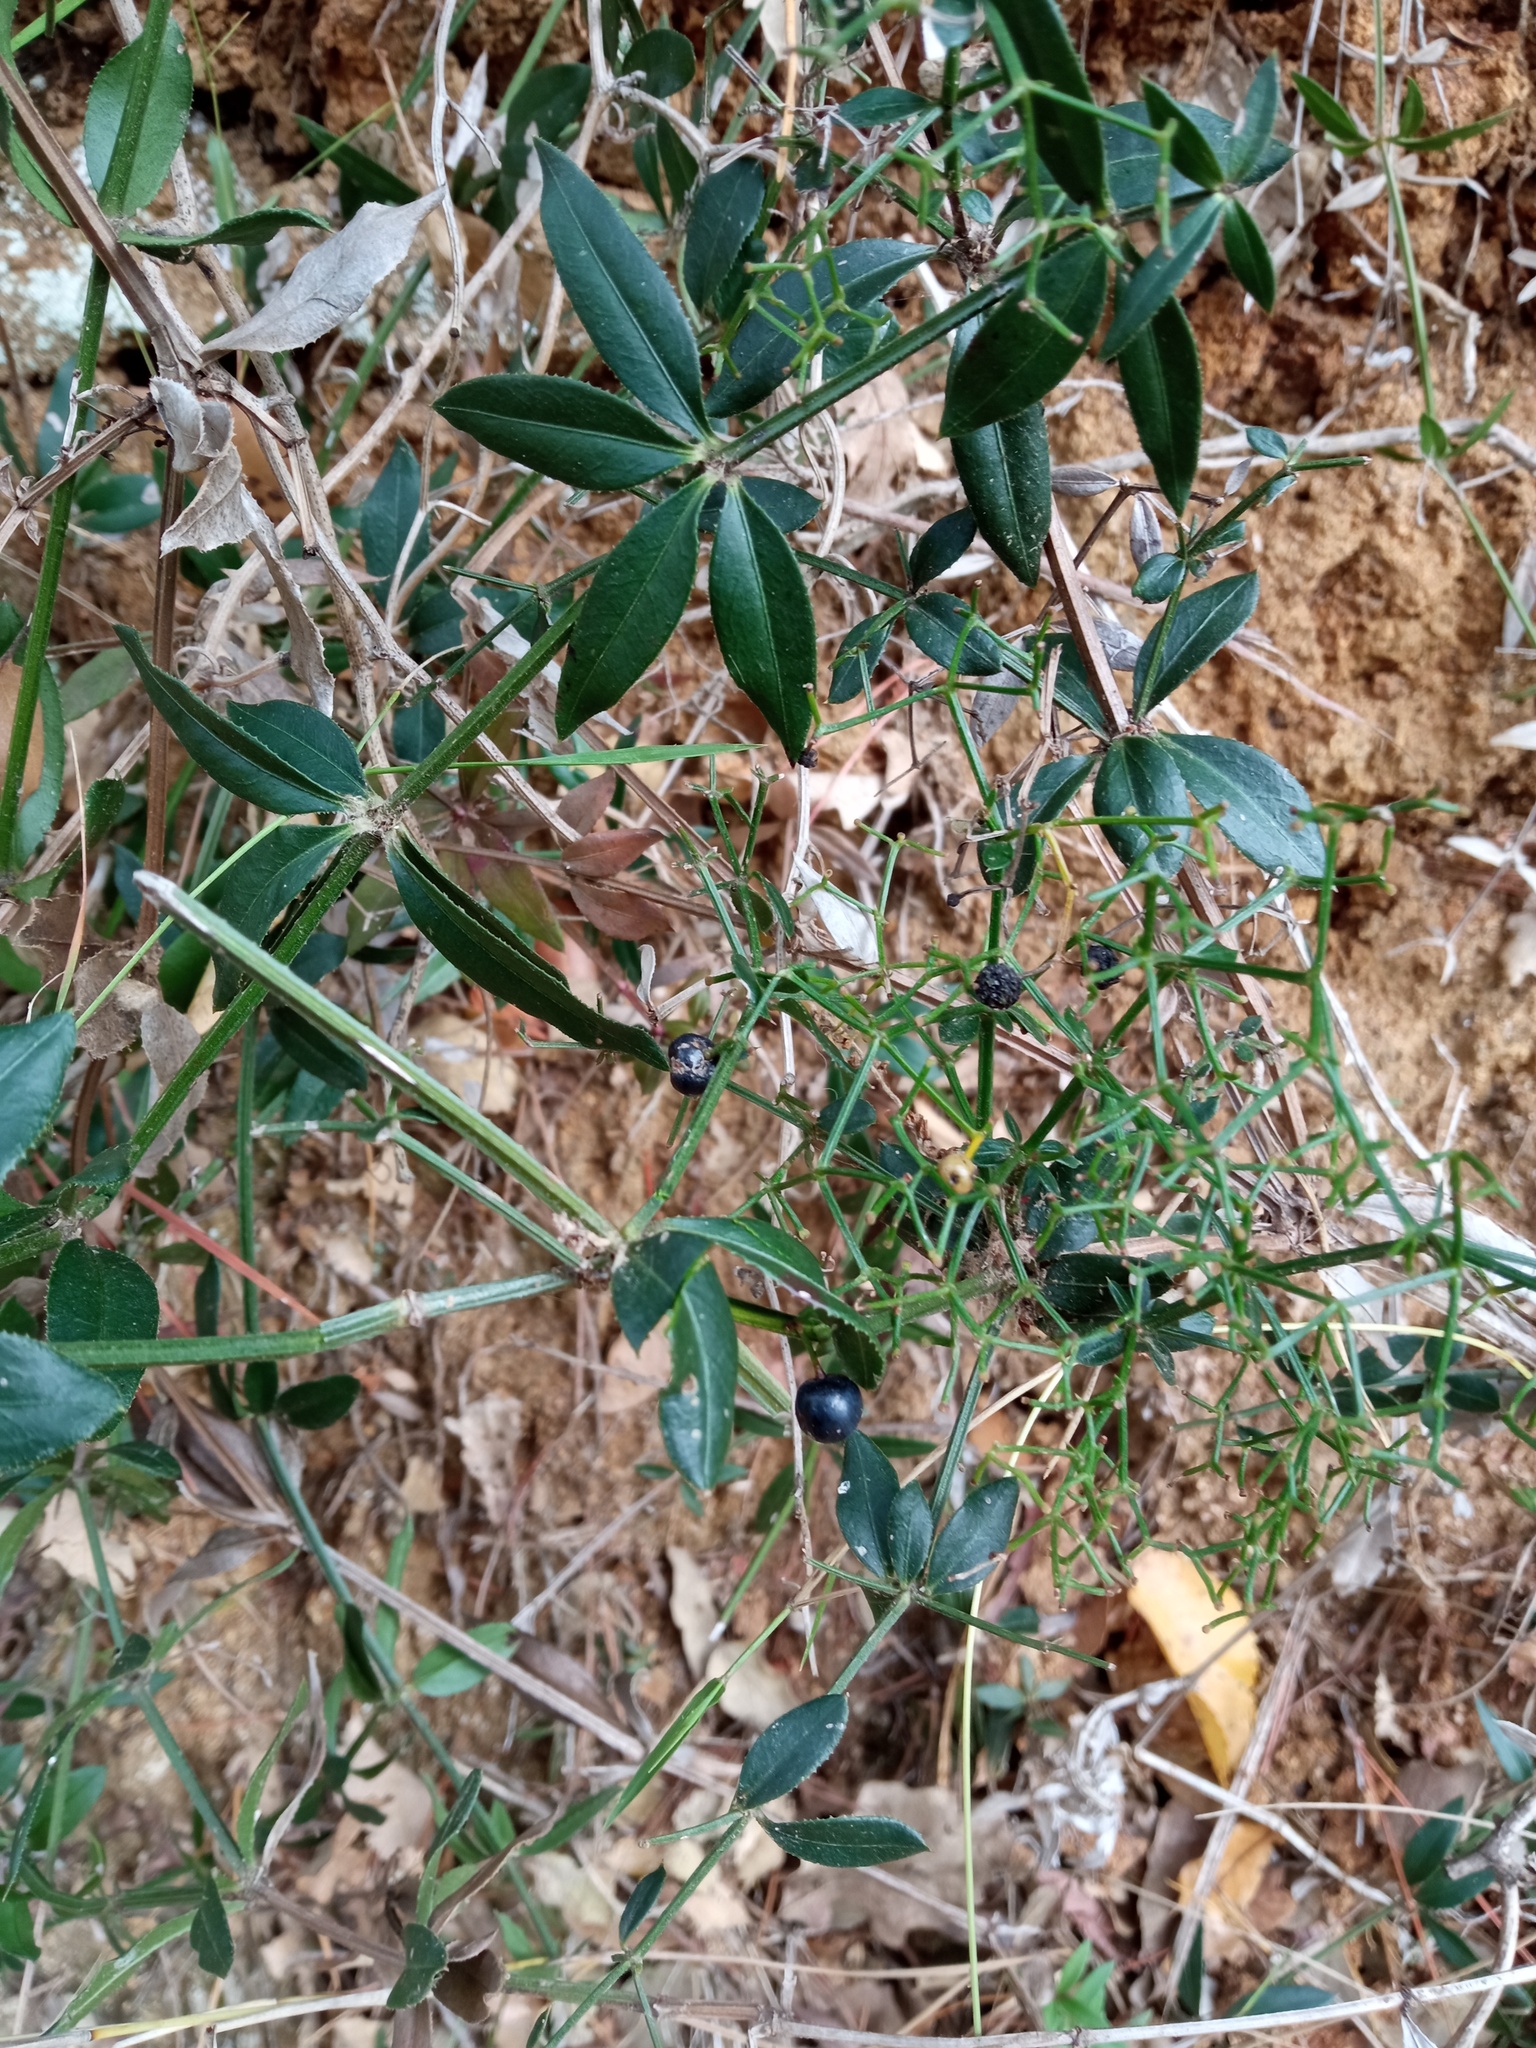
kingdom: Plantae
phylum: Tracheophyta
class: Magnoliopsida
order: Gentianales
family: Rubiaceae
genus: Rubia
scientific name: Rubia peregrina
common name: Wild madder
